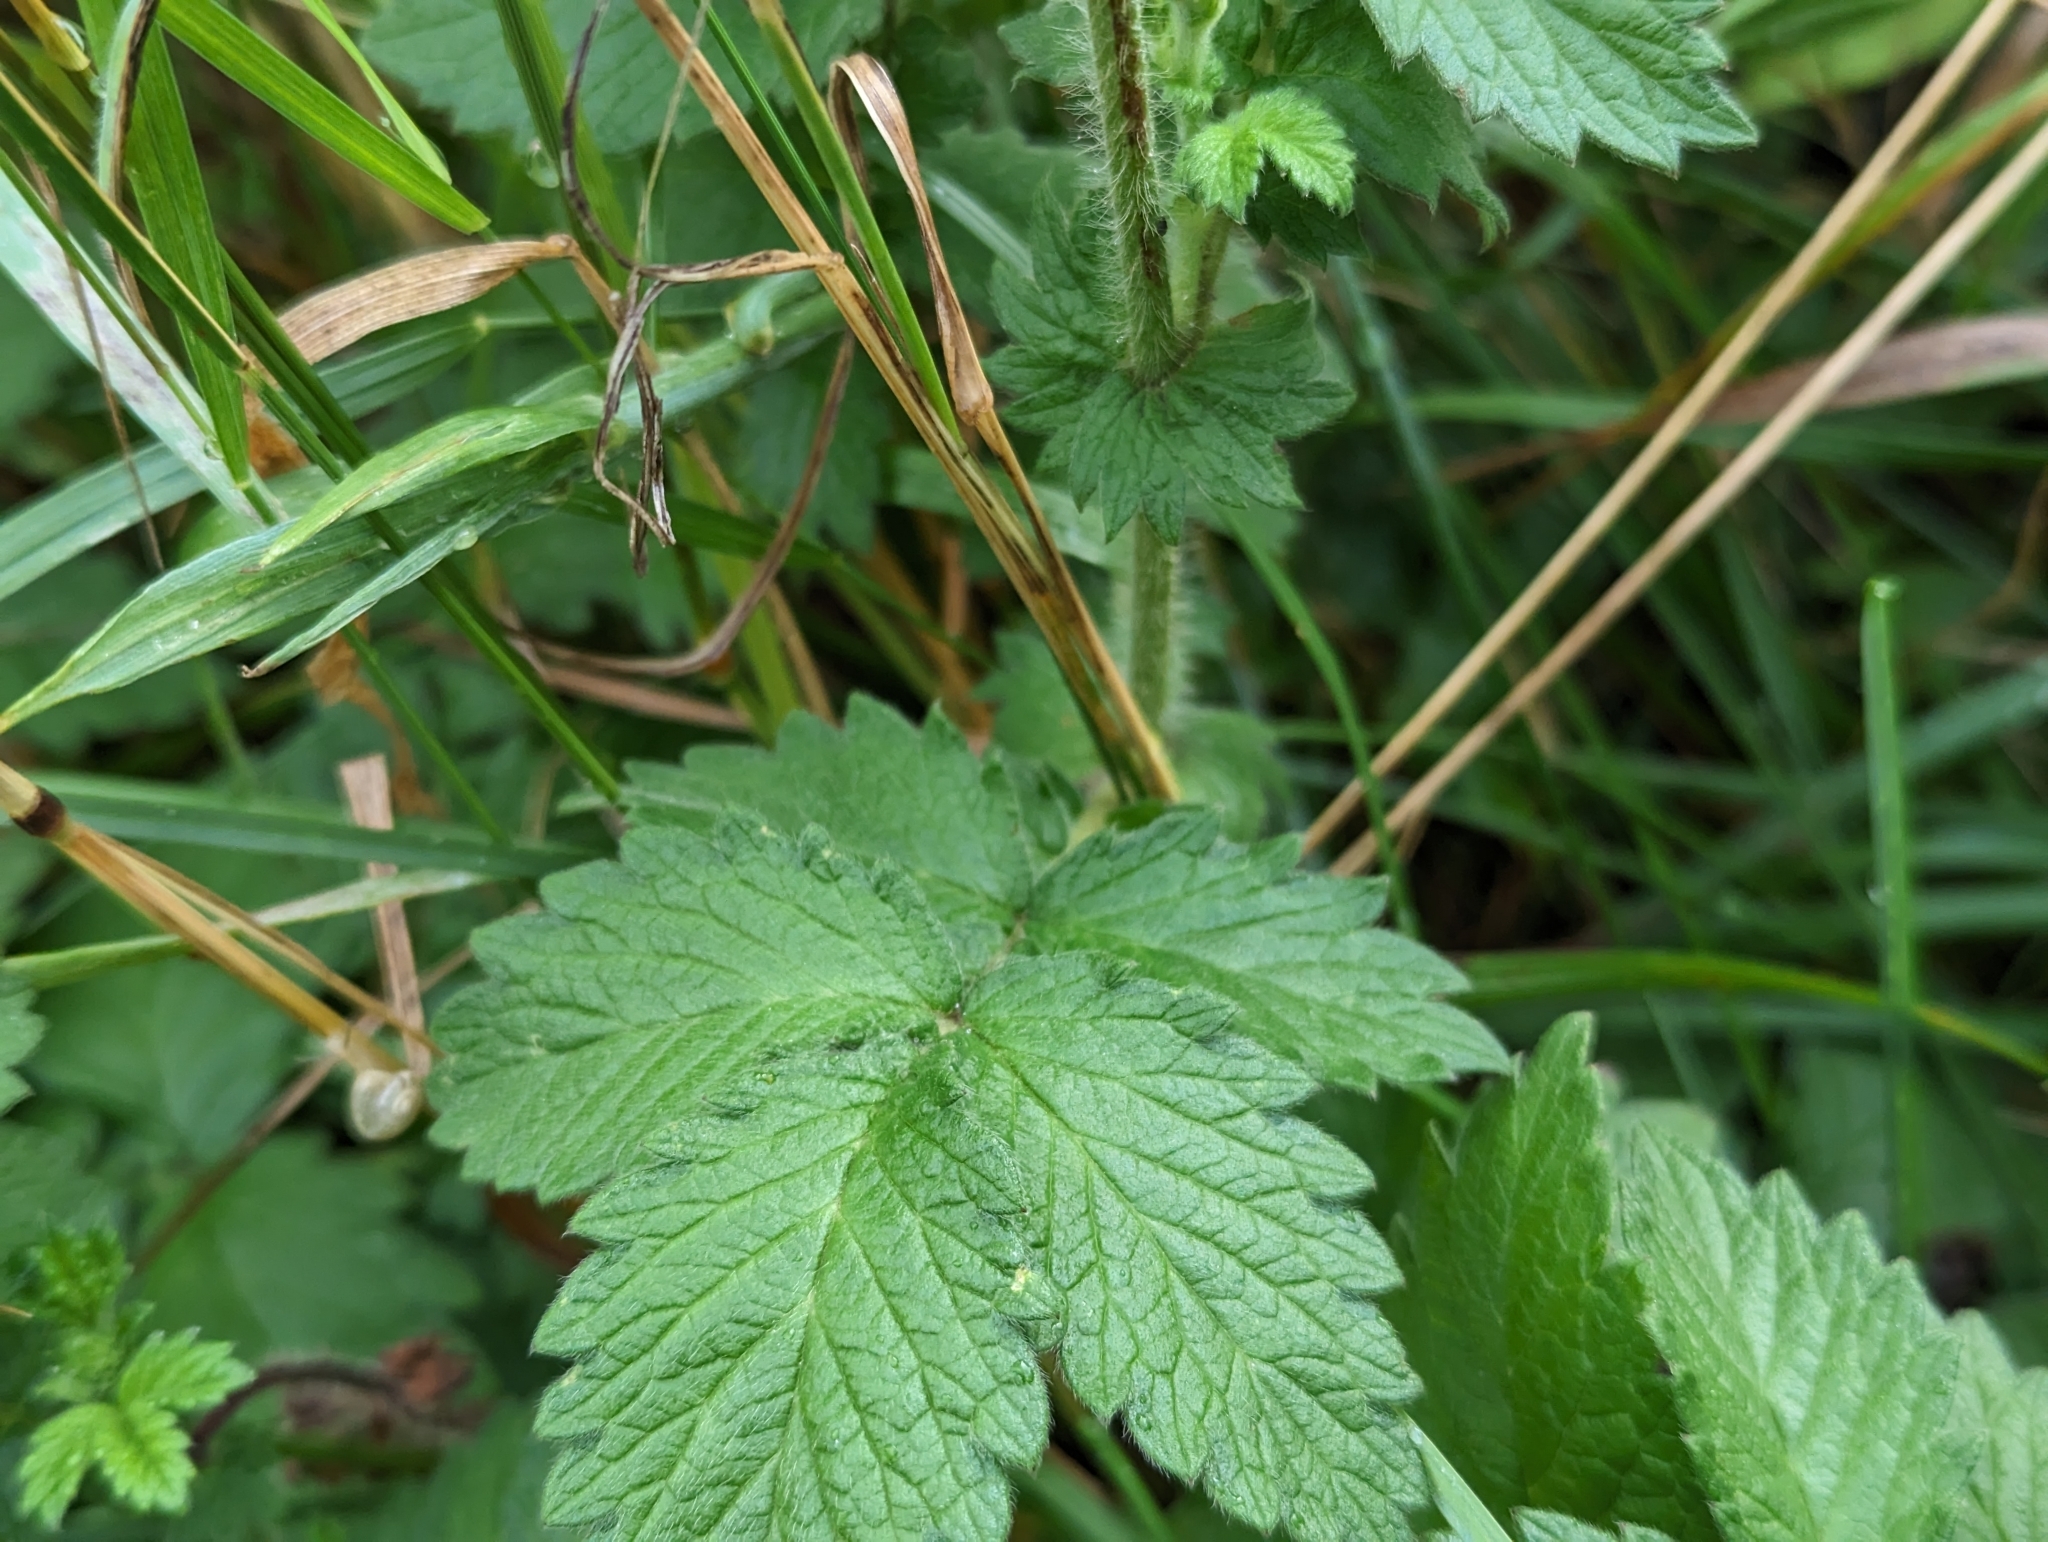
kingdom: Plantae
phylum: Tracheophyta
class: Magnoliopsida
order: Rosales
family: Rosaceae
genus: Agrimonia
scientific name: Agrimonia eupatoria
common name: Agrimony
